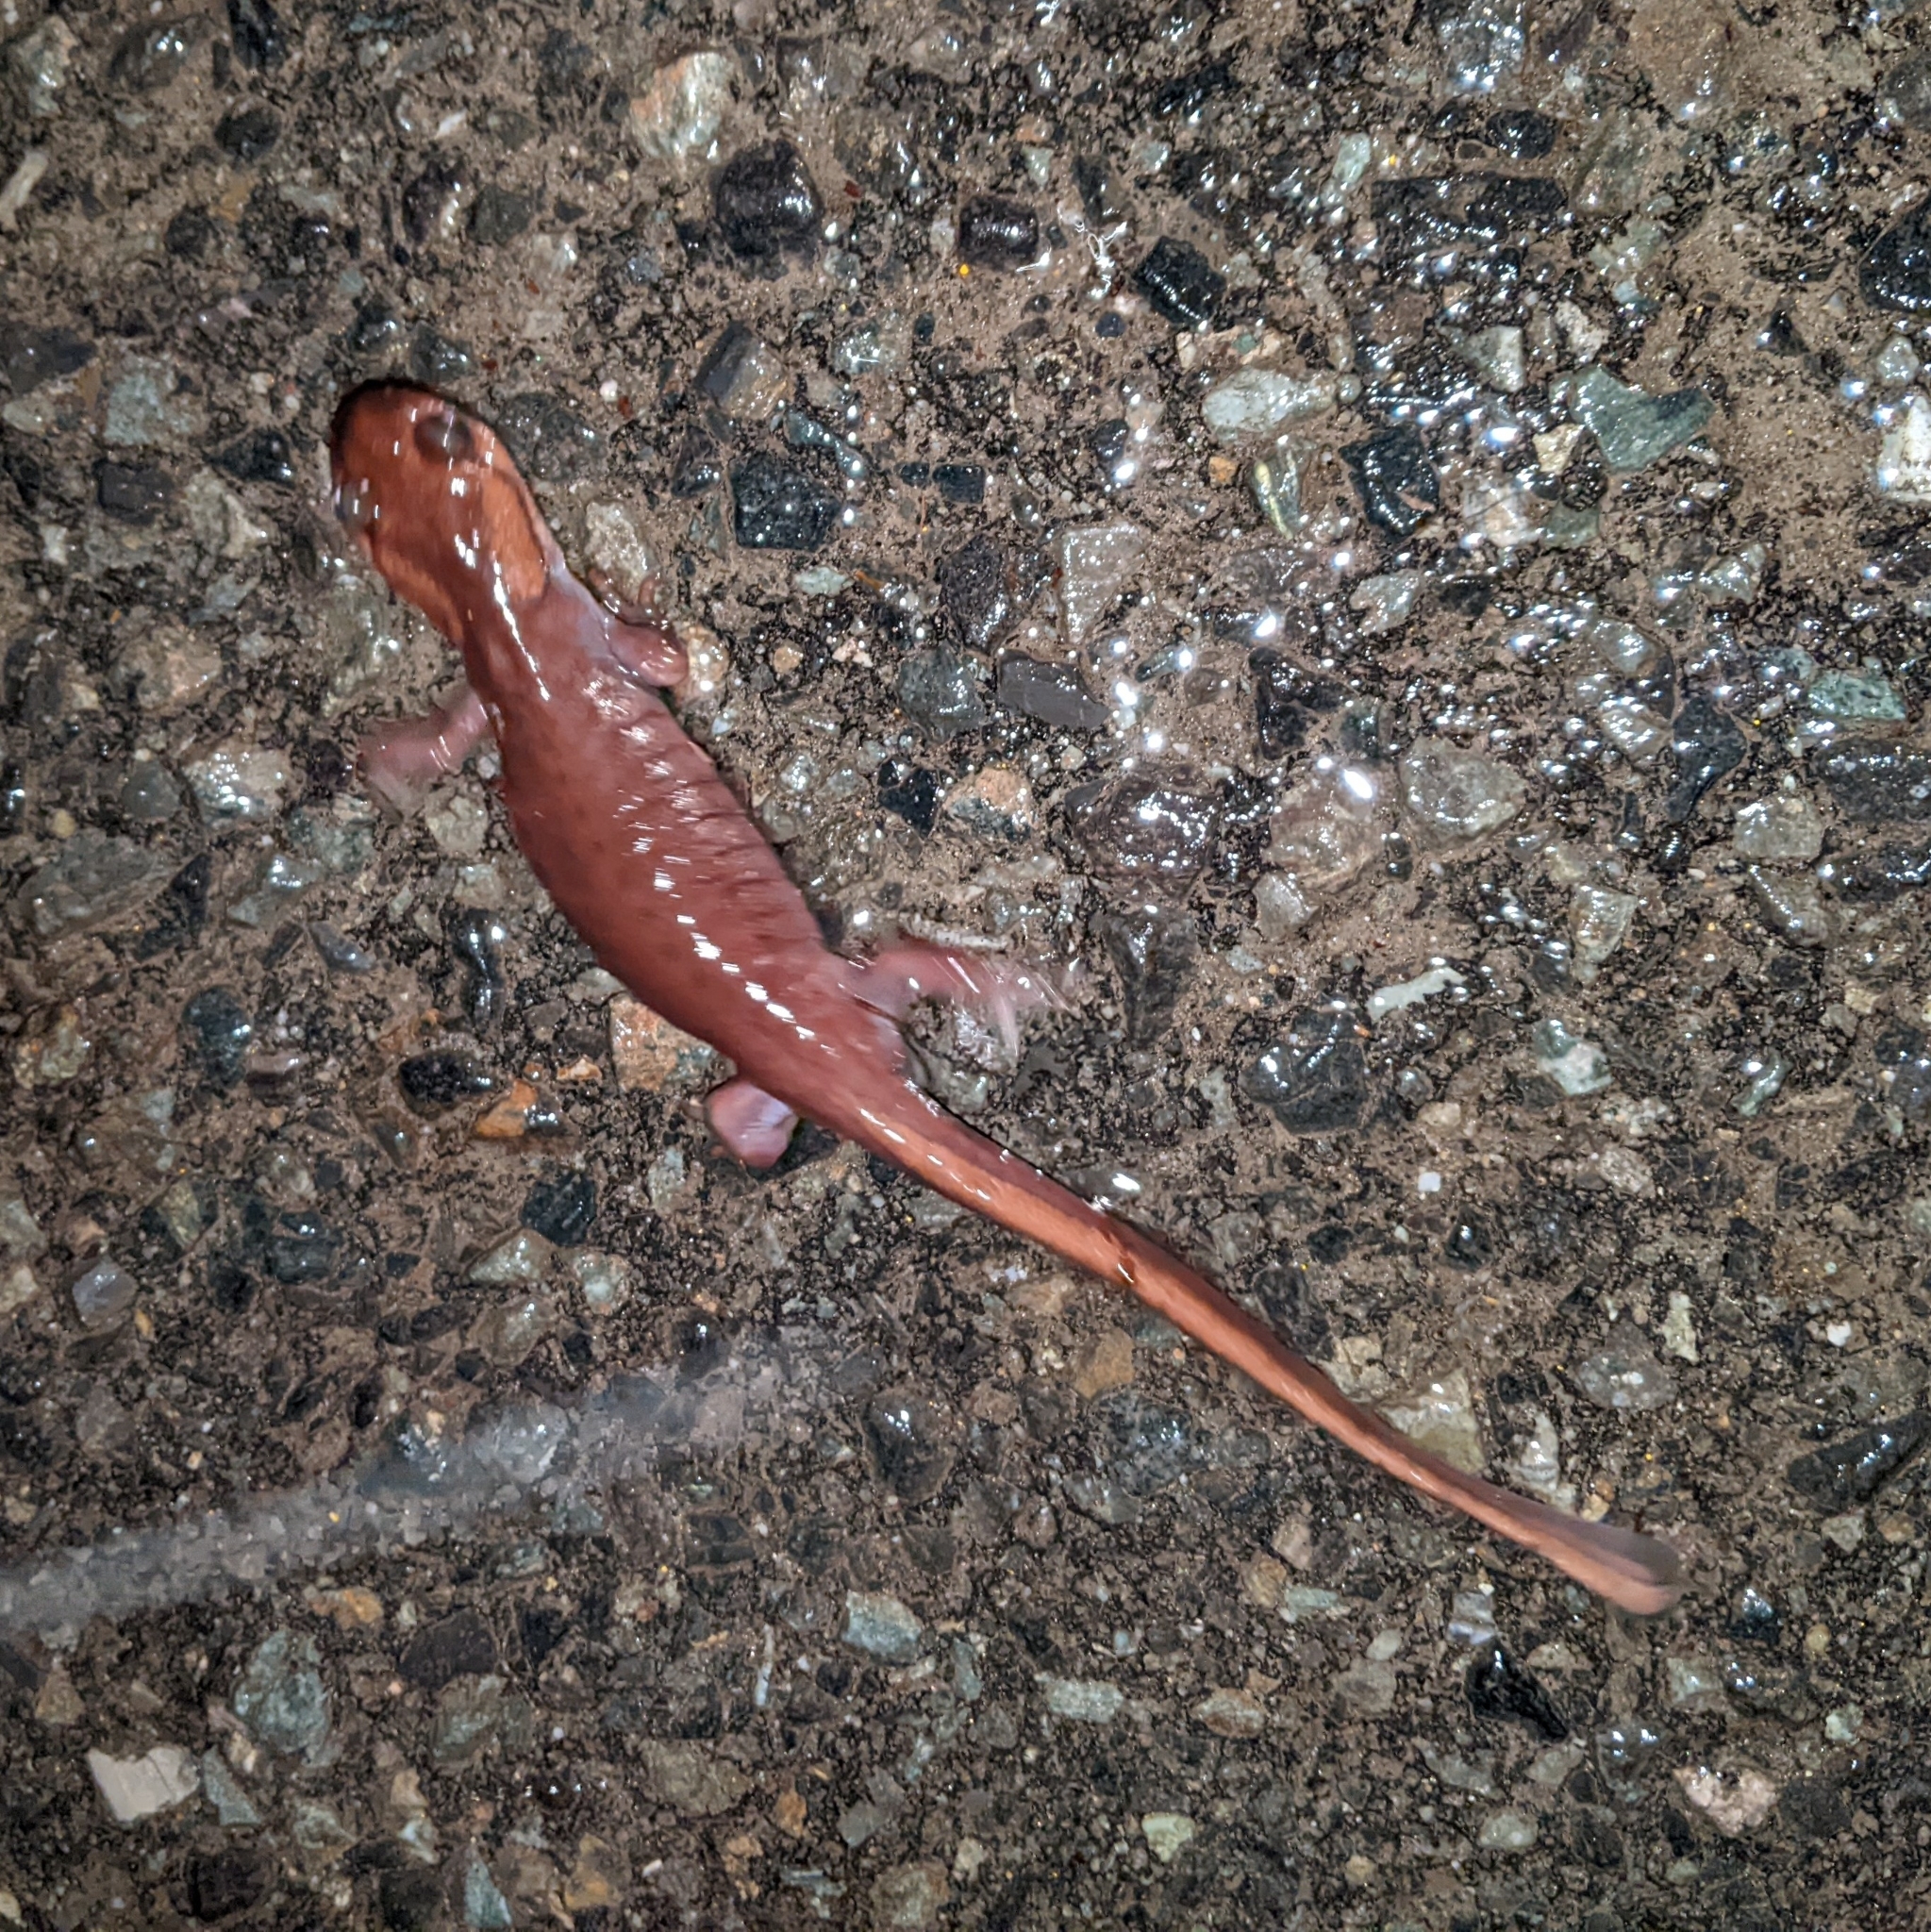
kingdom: Animalia
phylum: Chordata
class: Amphibia
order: Caudata
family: Ambystomatidae
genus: Ambystoma
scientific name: Ambystoma gracile
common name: Northwestern salamander
